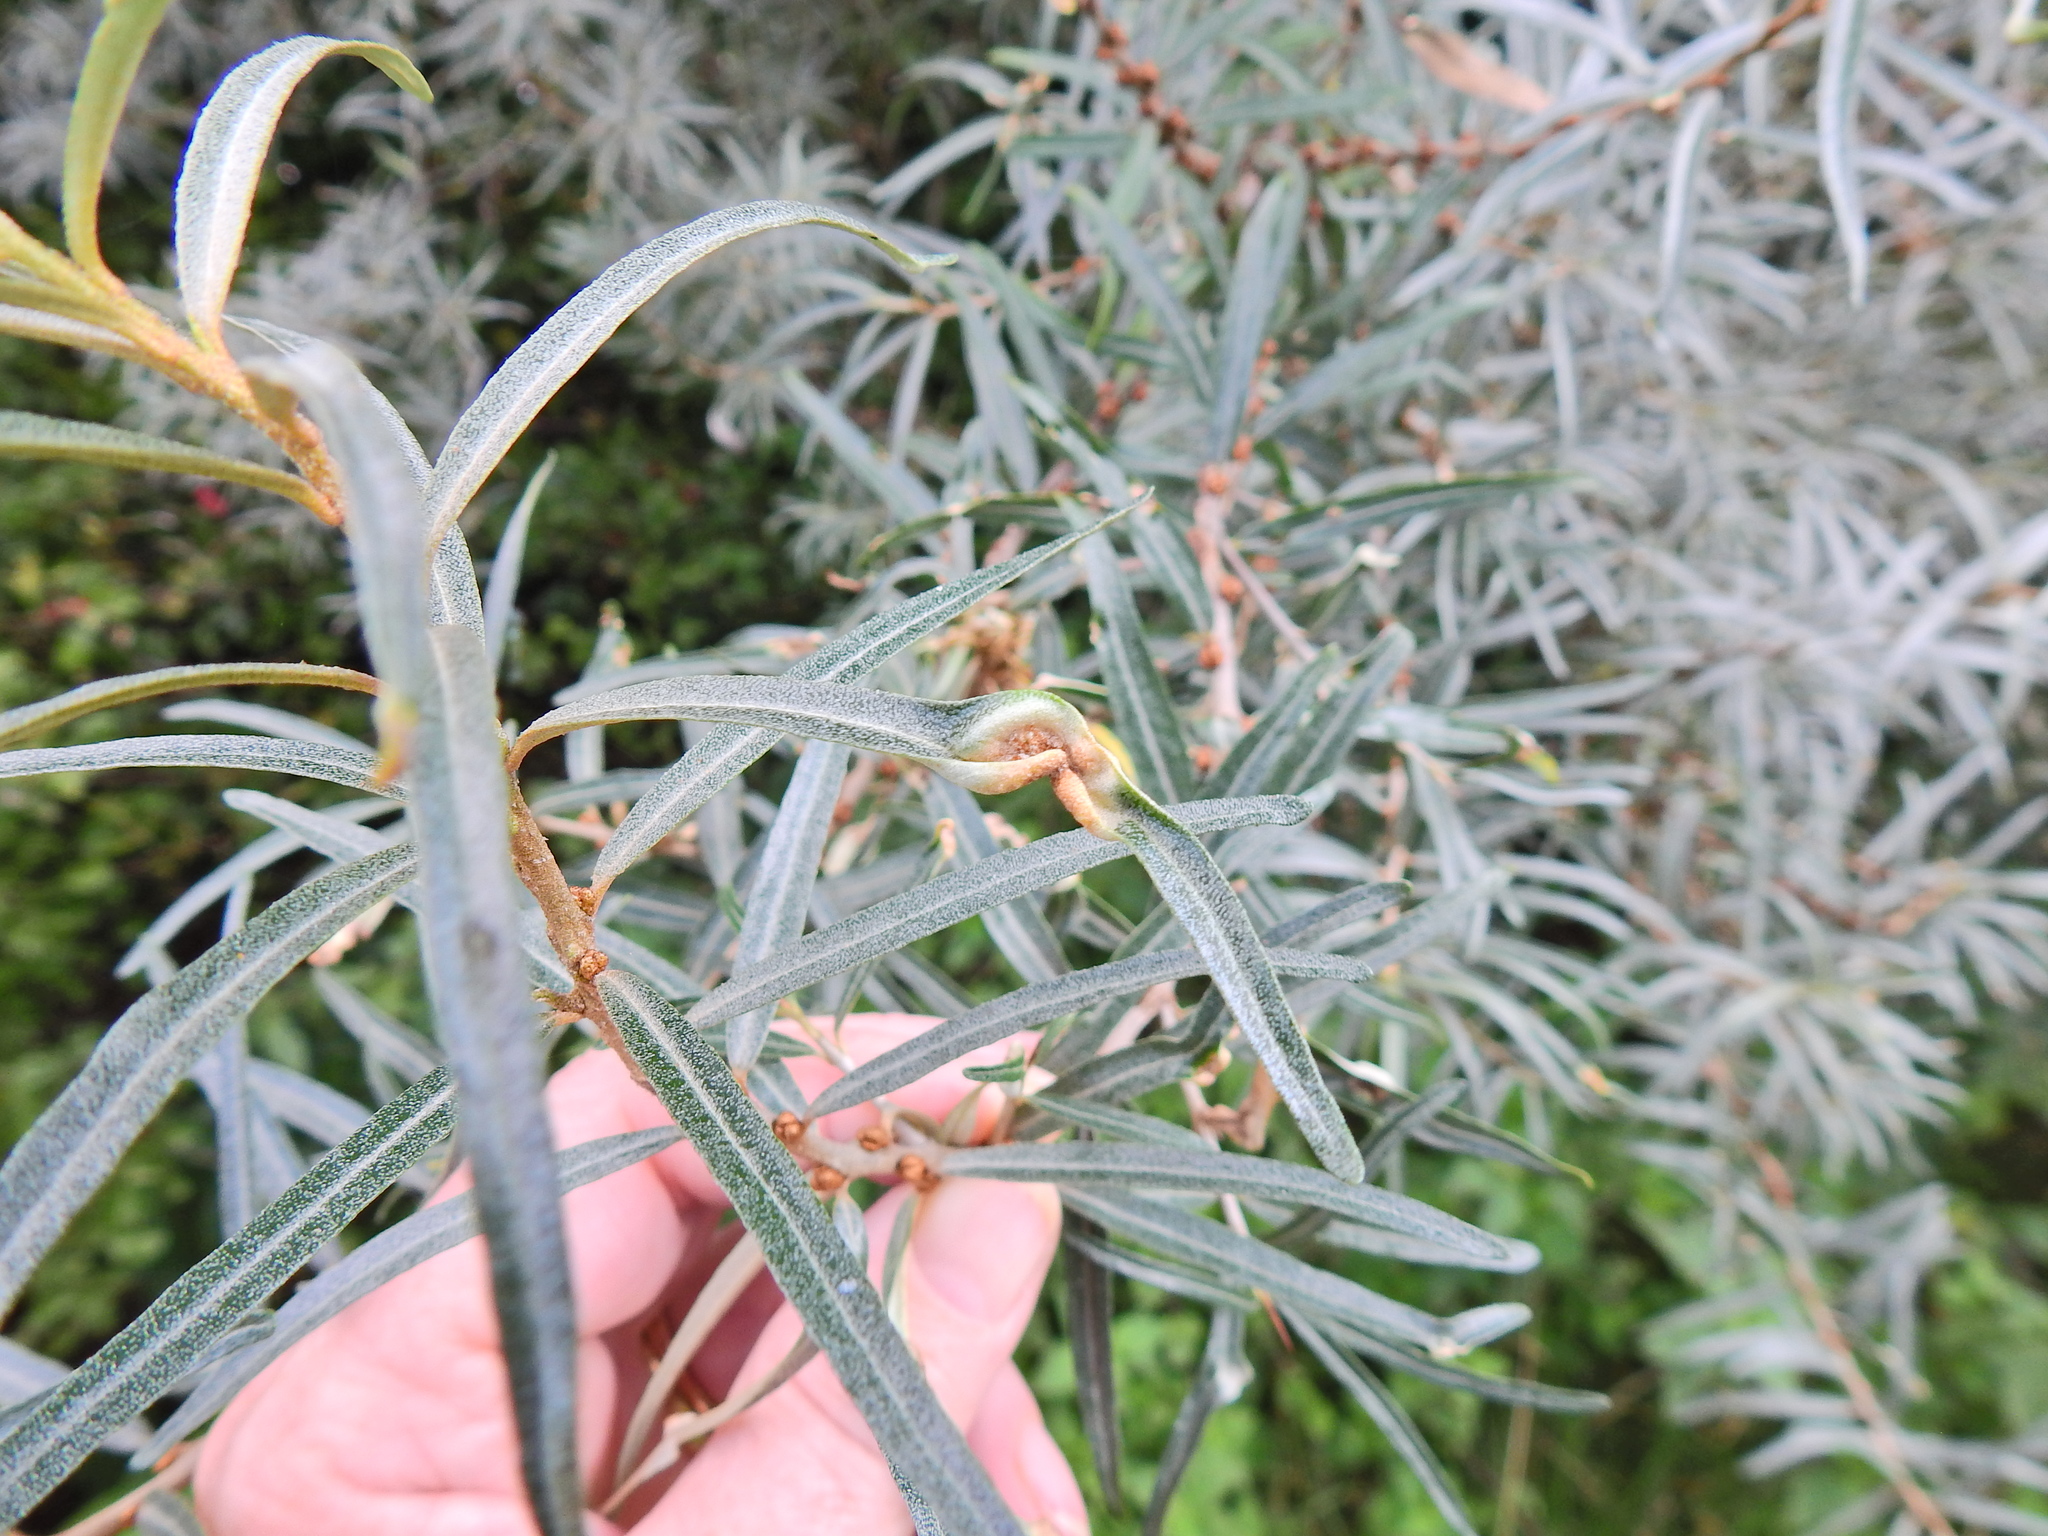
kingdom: Plantae
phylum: Tracheophyta
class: Magnoliopsida
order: Rosales
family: Elaeagnaceae
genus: Hippophae
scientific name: Hippophae rhamnoides
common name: Sea-buckthorn
